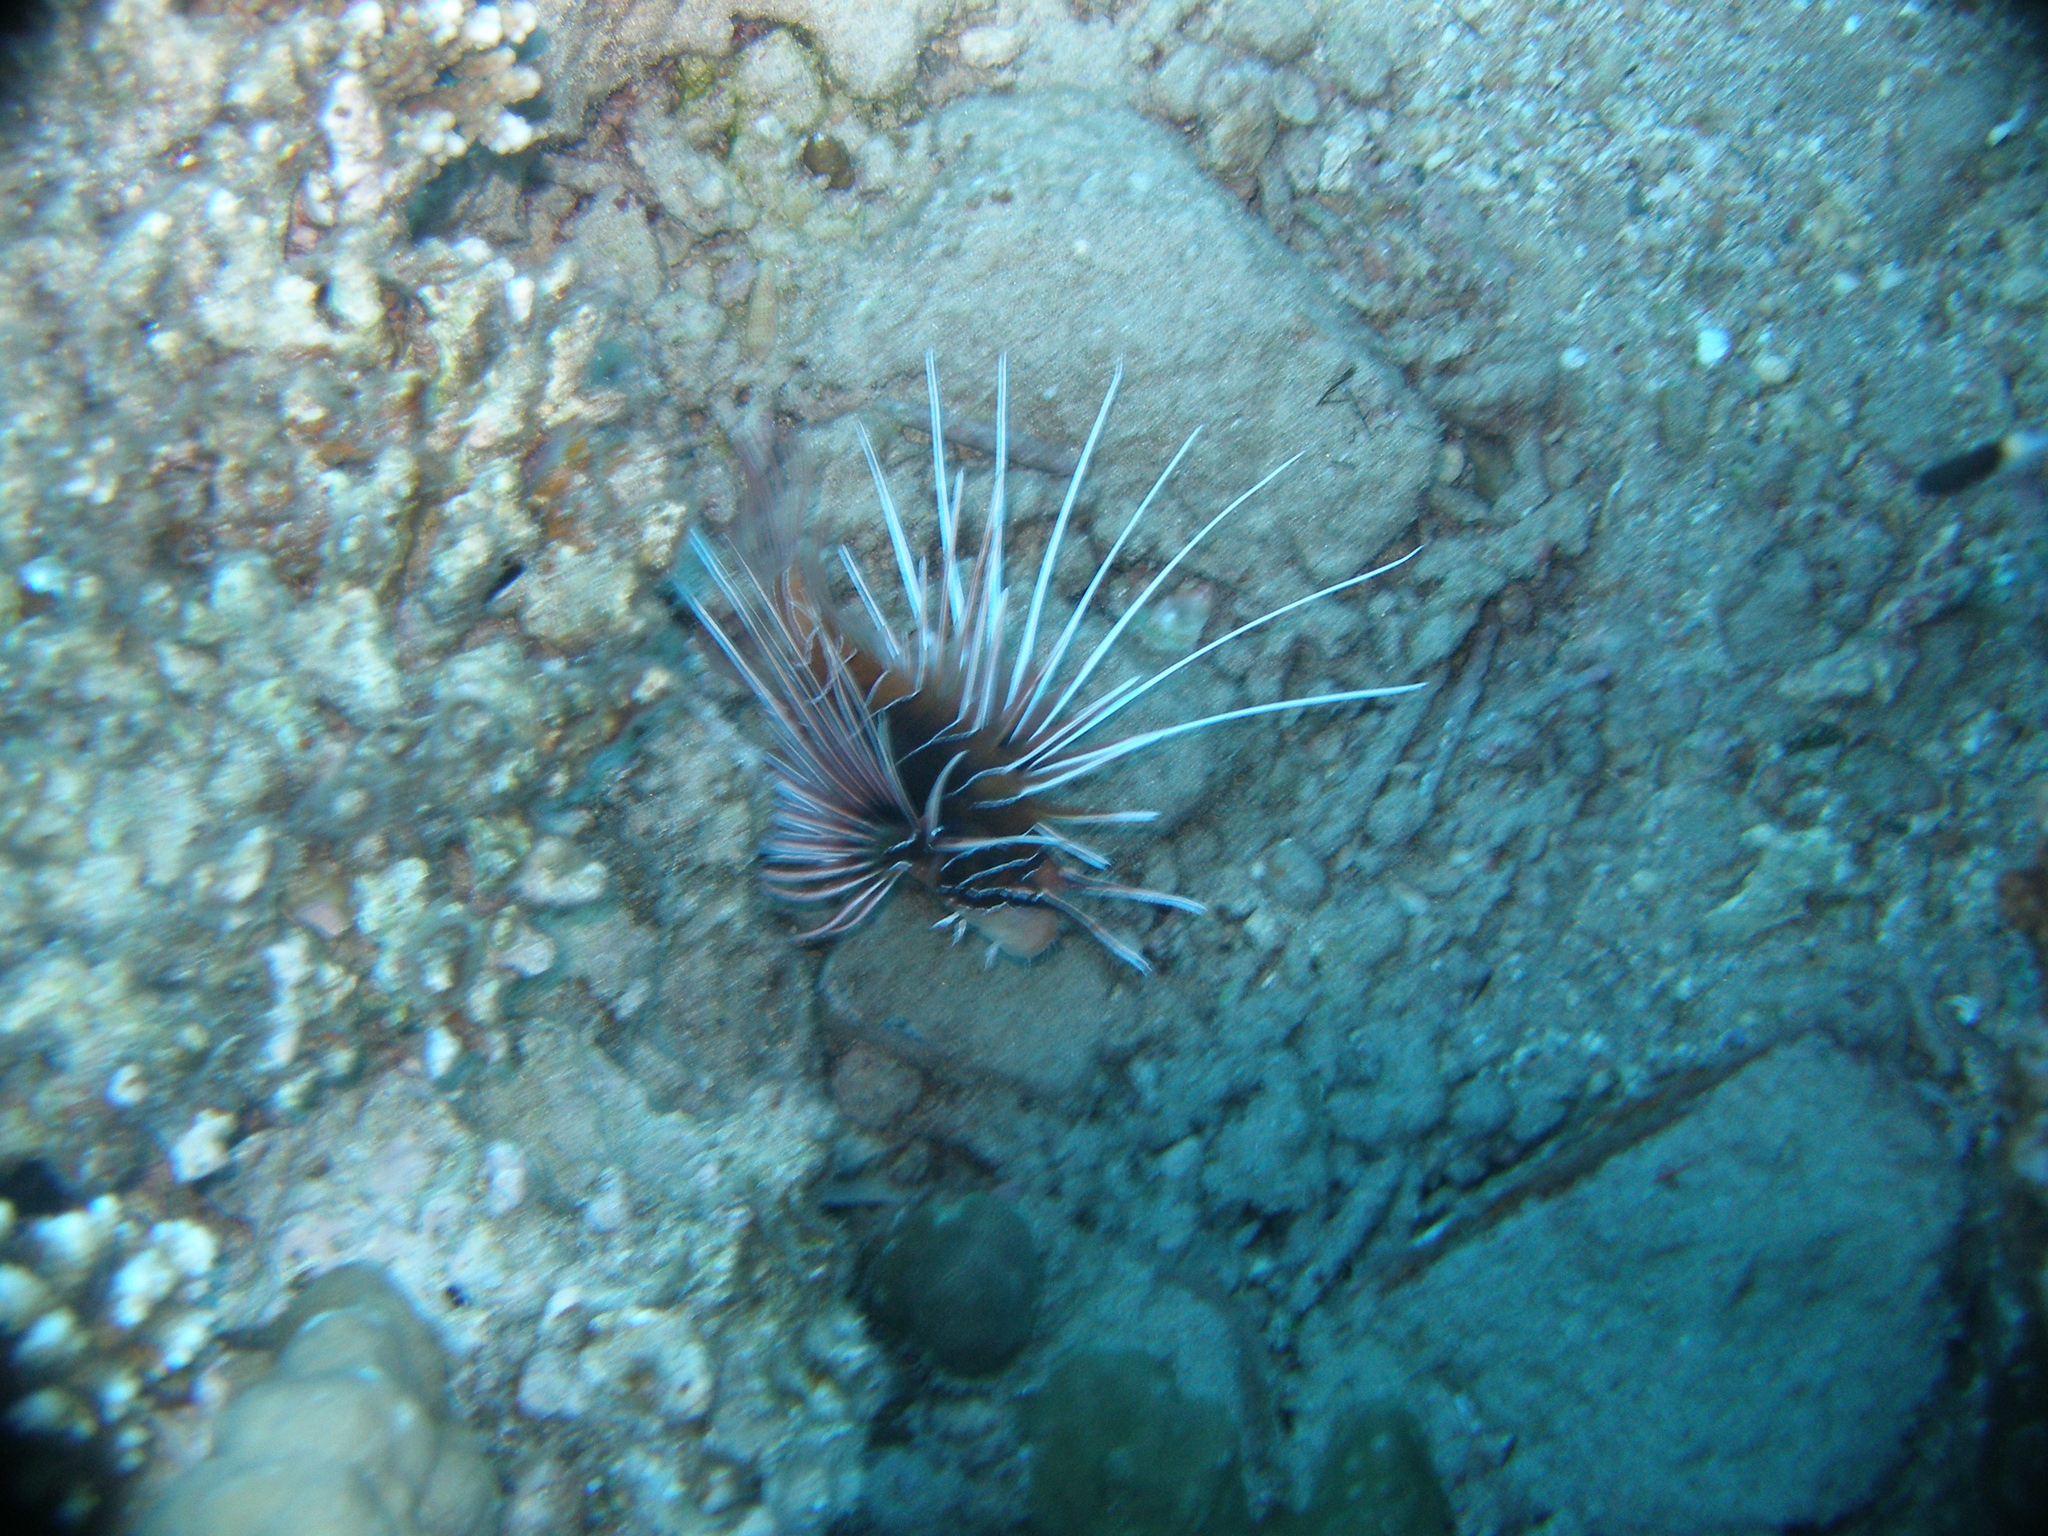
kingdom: Animalia
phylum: Chordata
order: Scorpaeniformes
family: Scorpaenidae
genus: Pterois
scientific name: Pterois cincta
